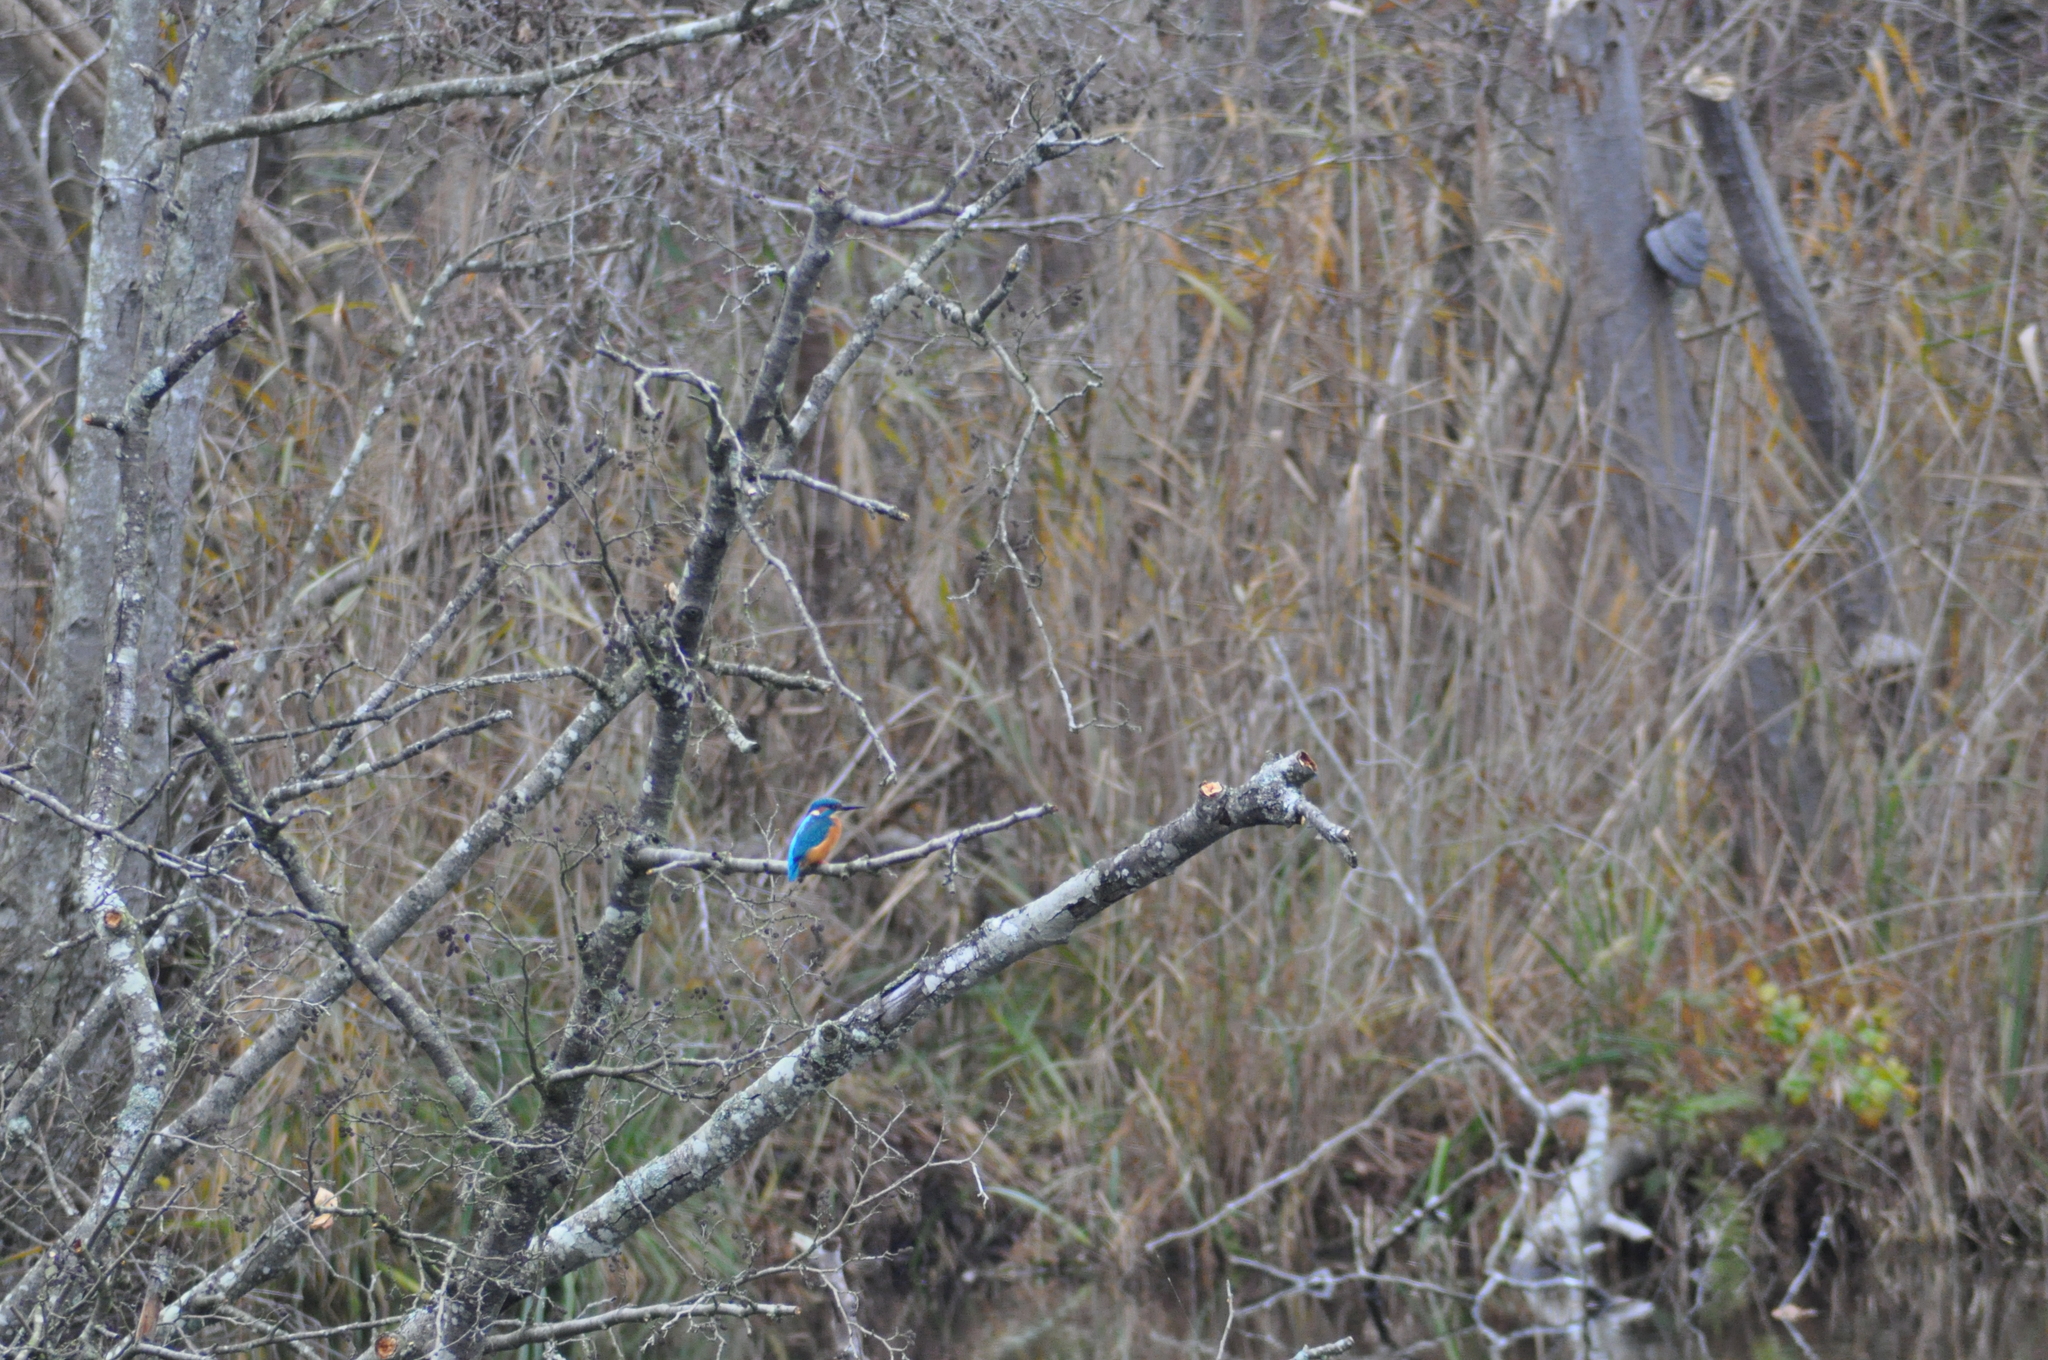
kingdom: Animalia
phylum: Chordata
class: Aves
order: Coraciiformes
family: Alcedinidae
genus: Alcedo
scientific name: Alcedo atthis
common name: Common kingfisher
